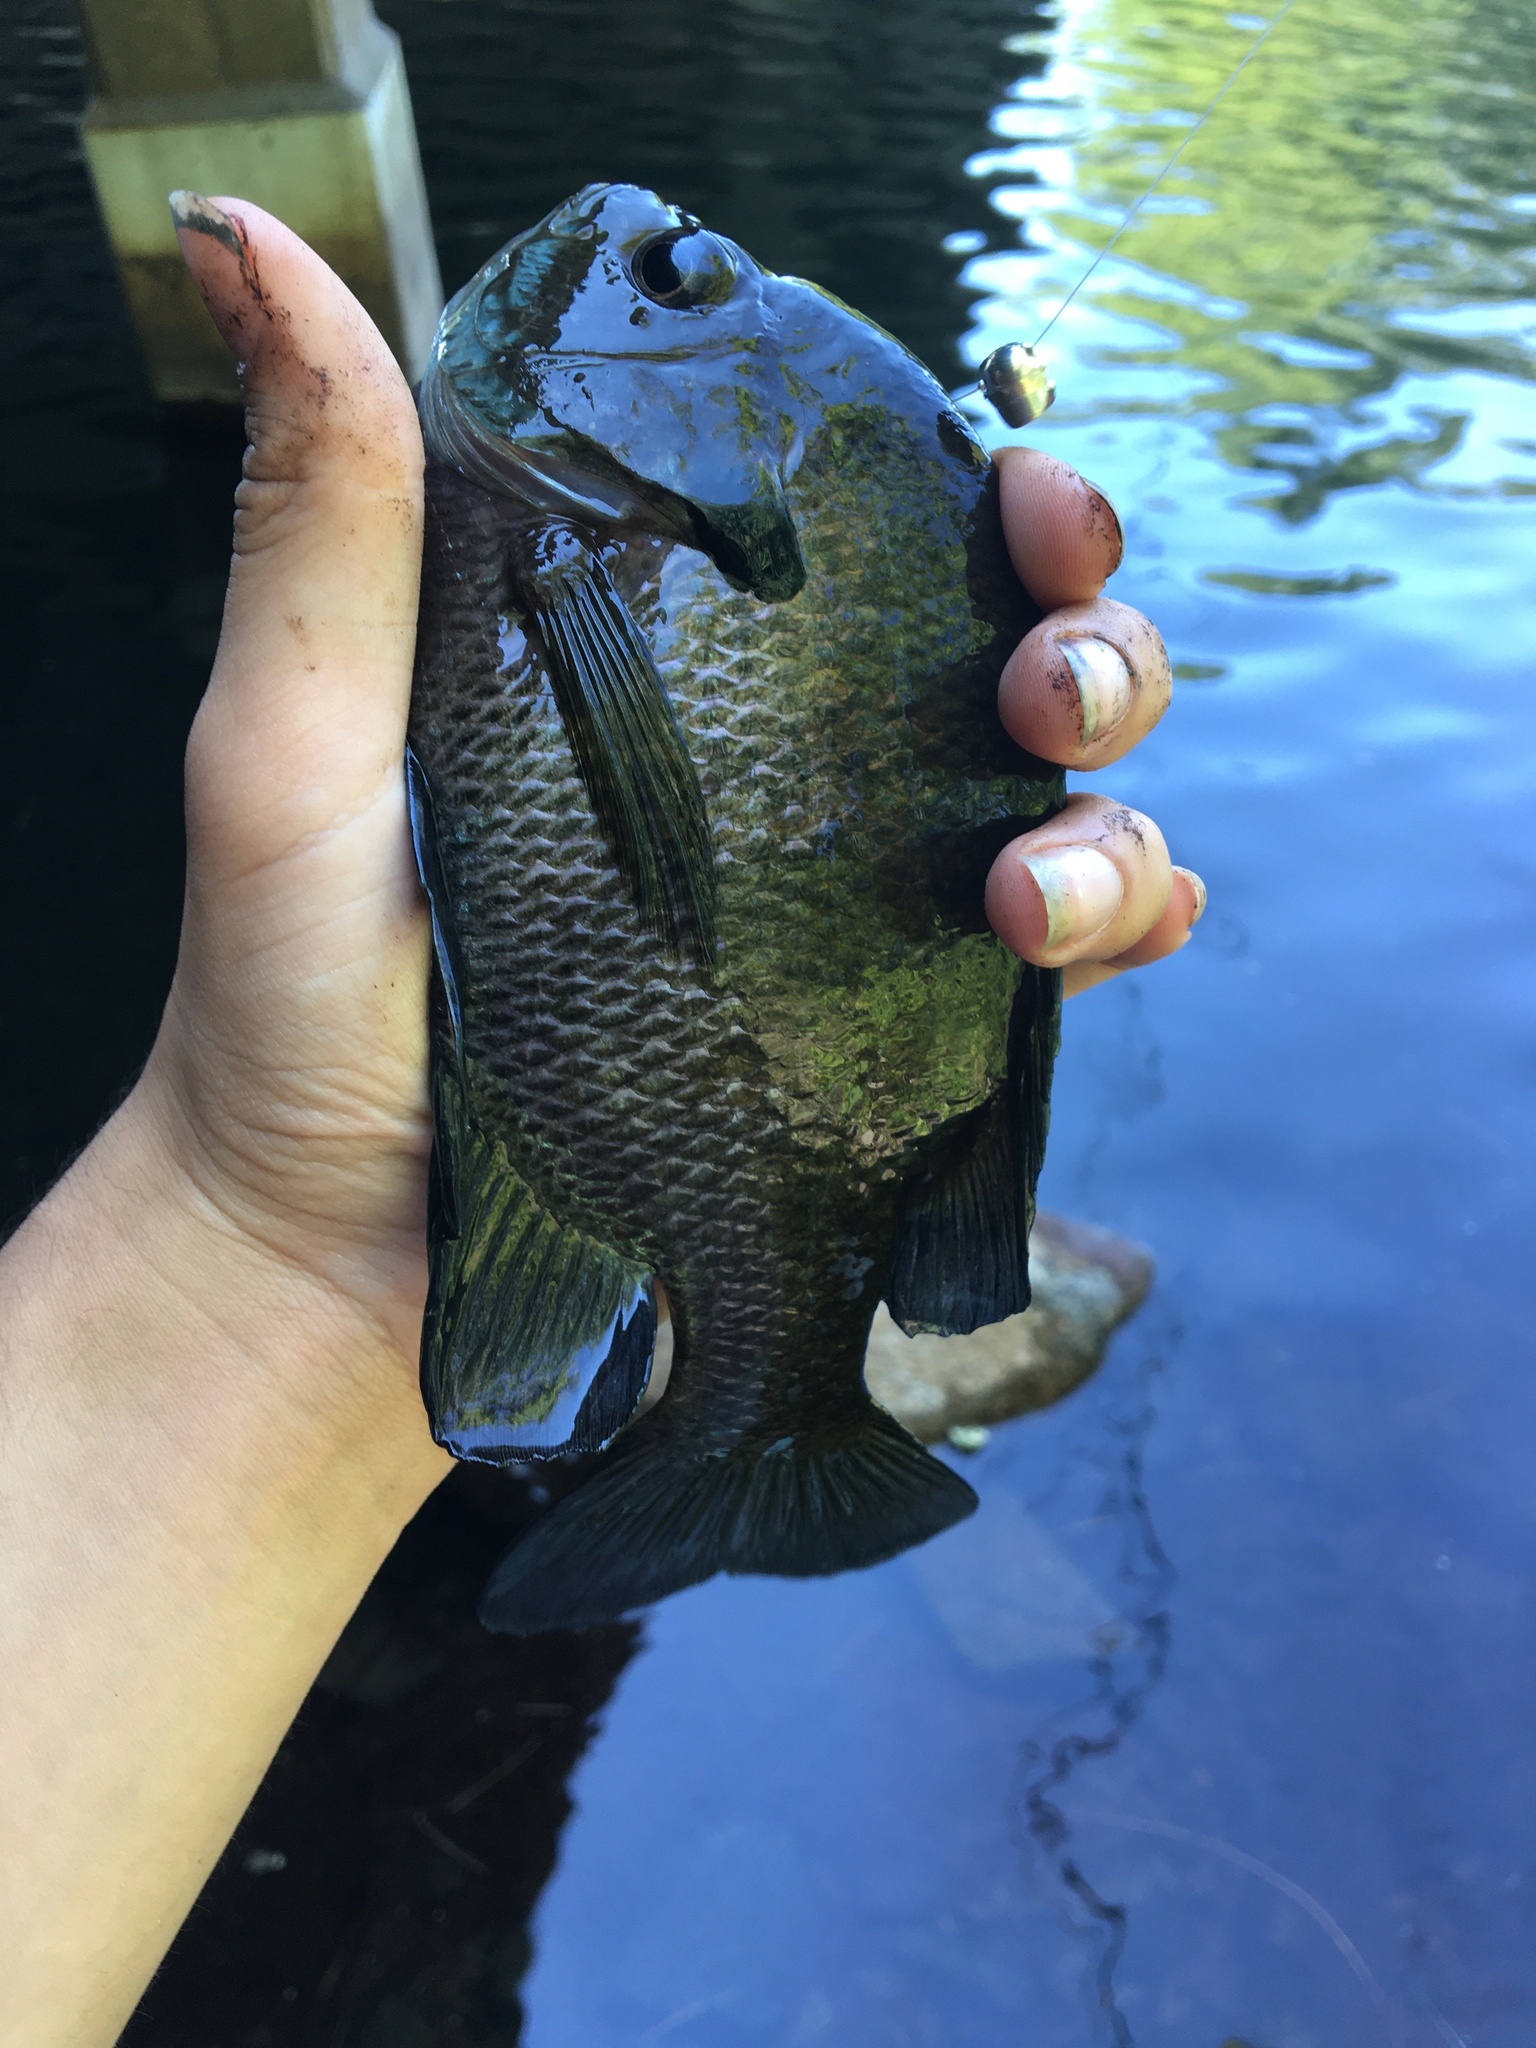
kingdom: Animalia
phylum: Chordata
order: Perciformes
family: Centrarchidae
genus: Lepomis
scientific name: Lepomis macrochirus
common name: Bluegill
